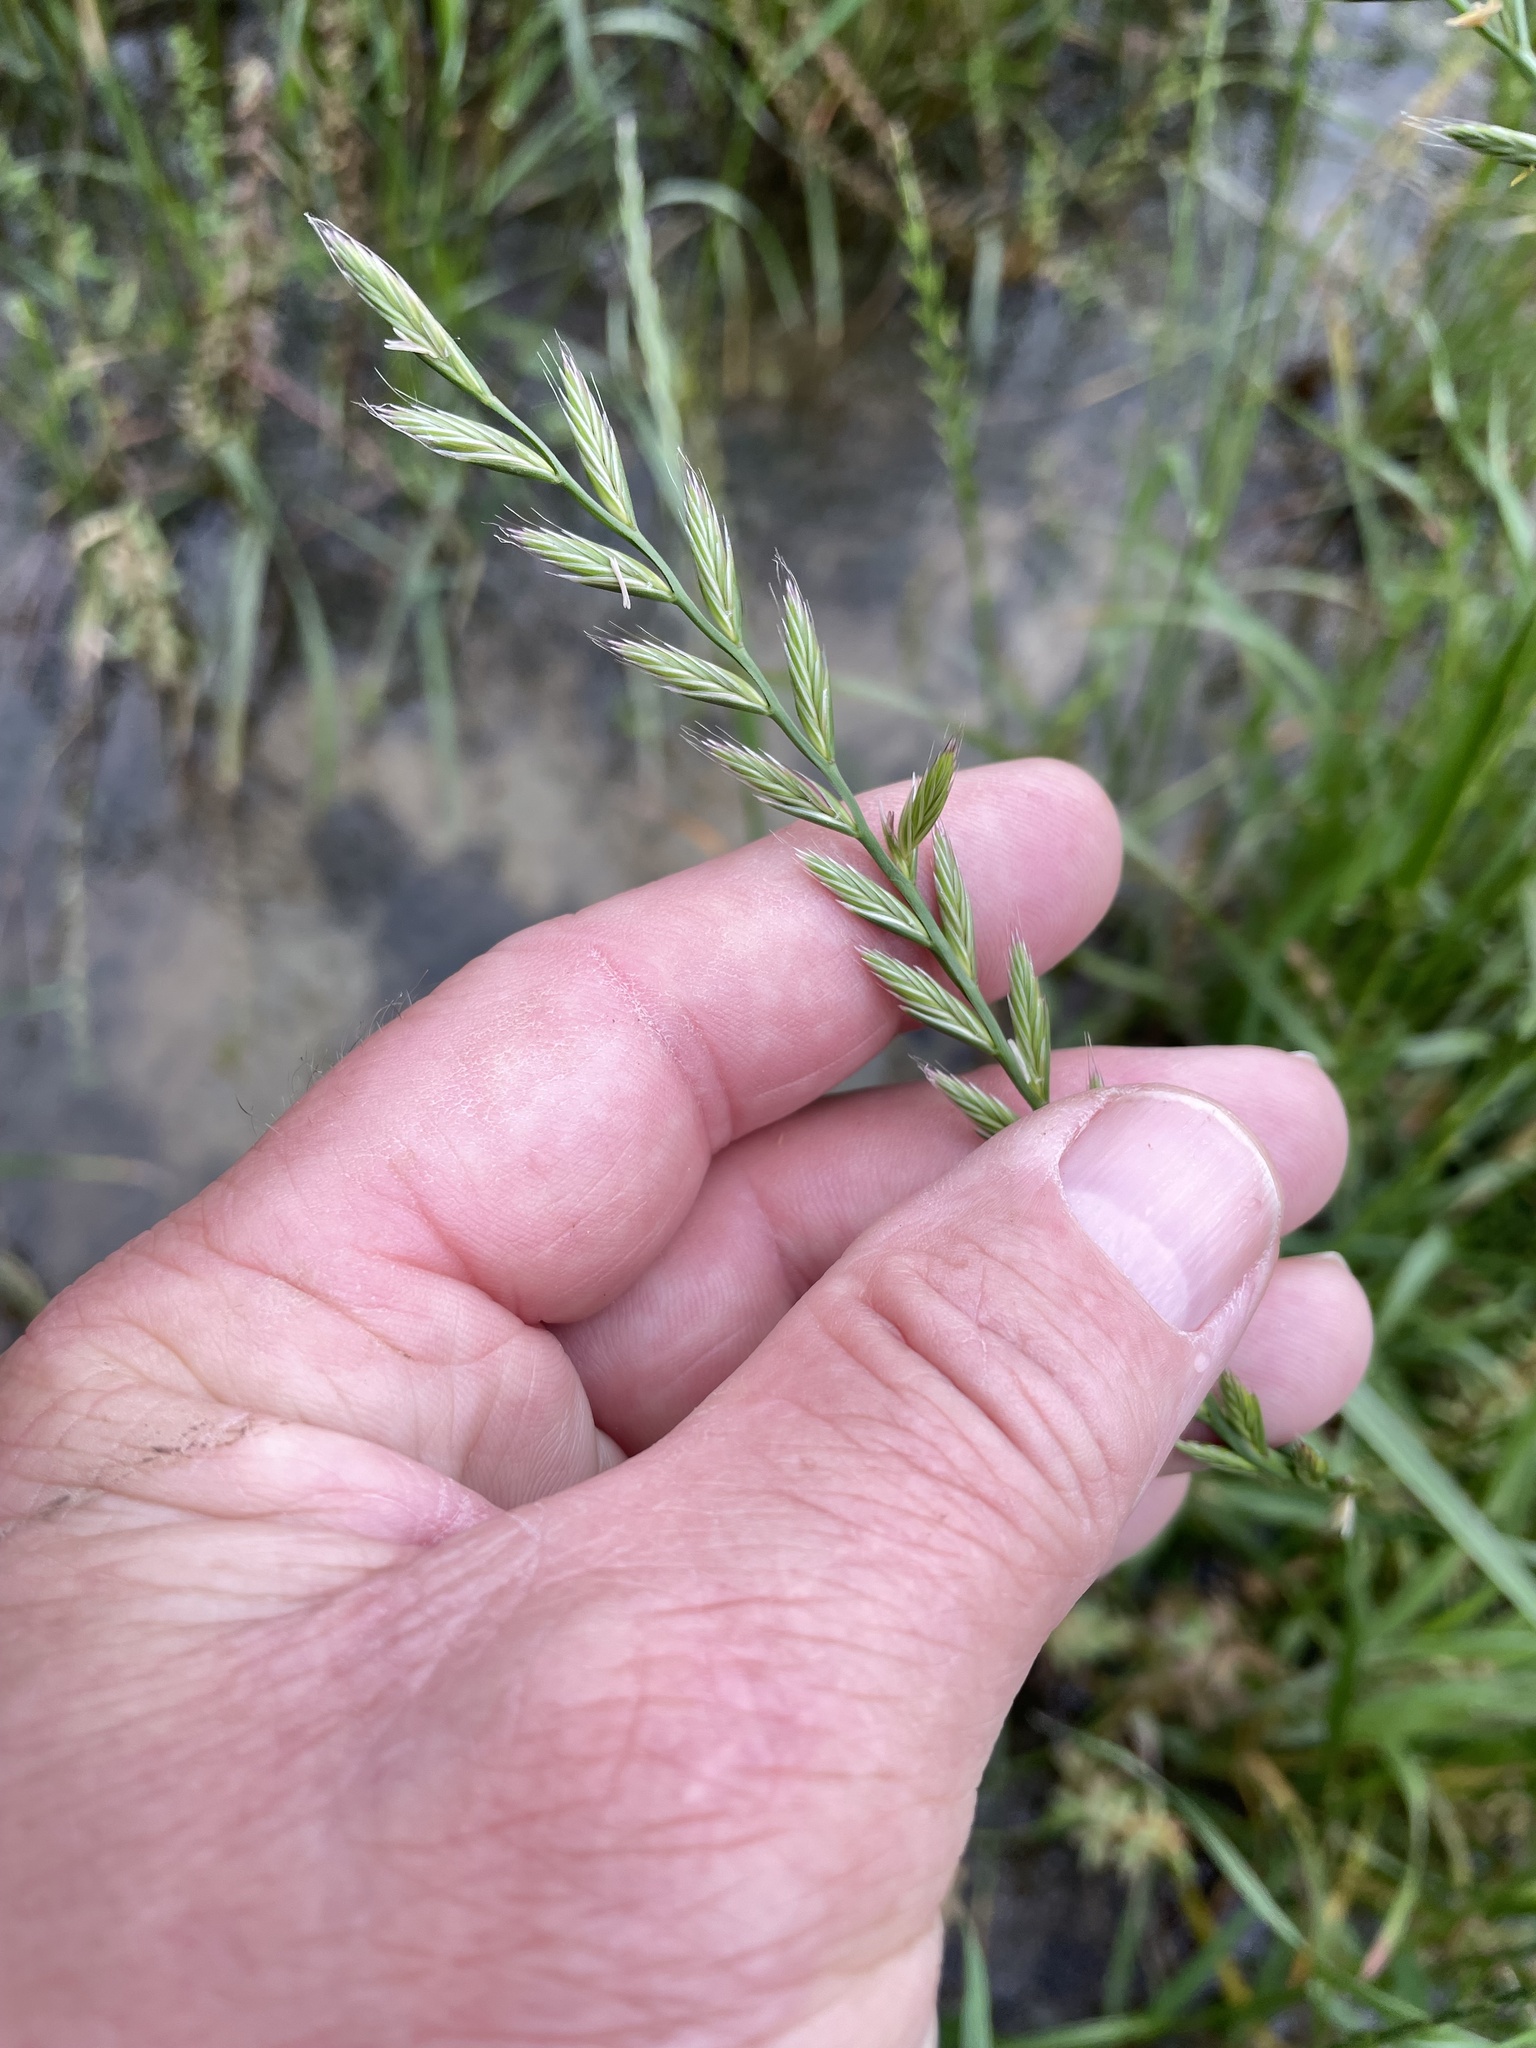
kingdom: Plantae
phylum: Tracheophyta
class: Liliopsida
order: Poales
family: Poaceae
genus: Lolium
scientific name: Lolium perenne
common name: Perennial ryegrass
